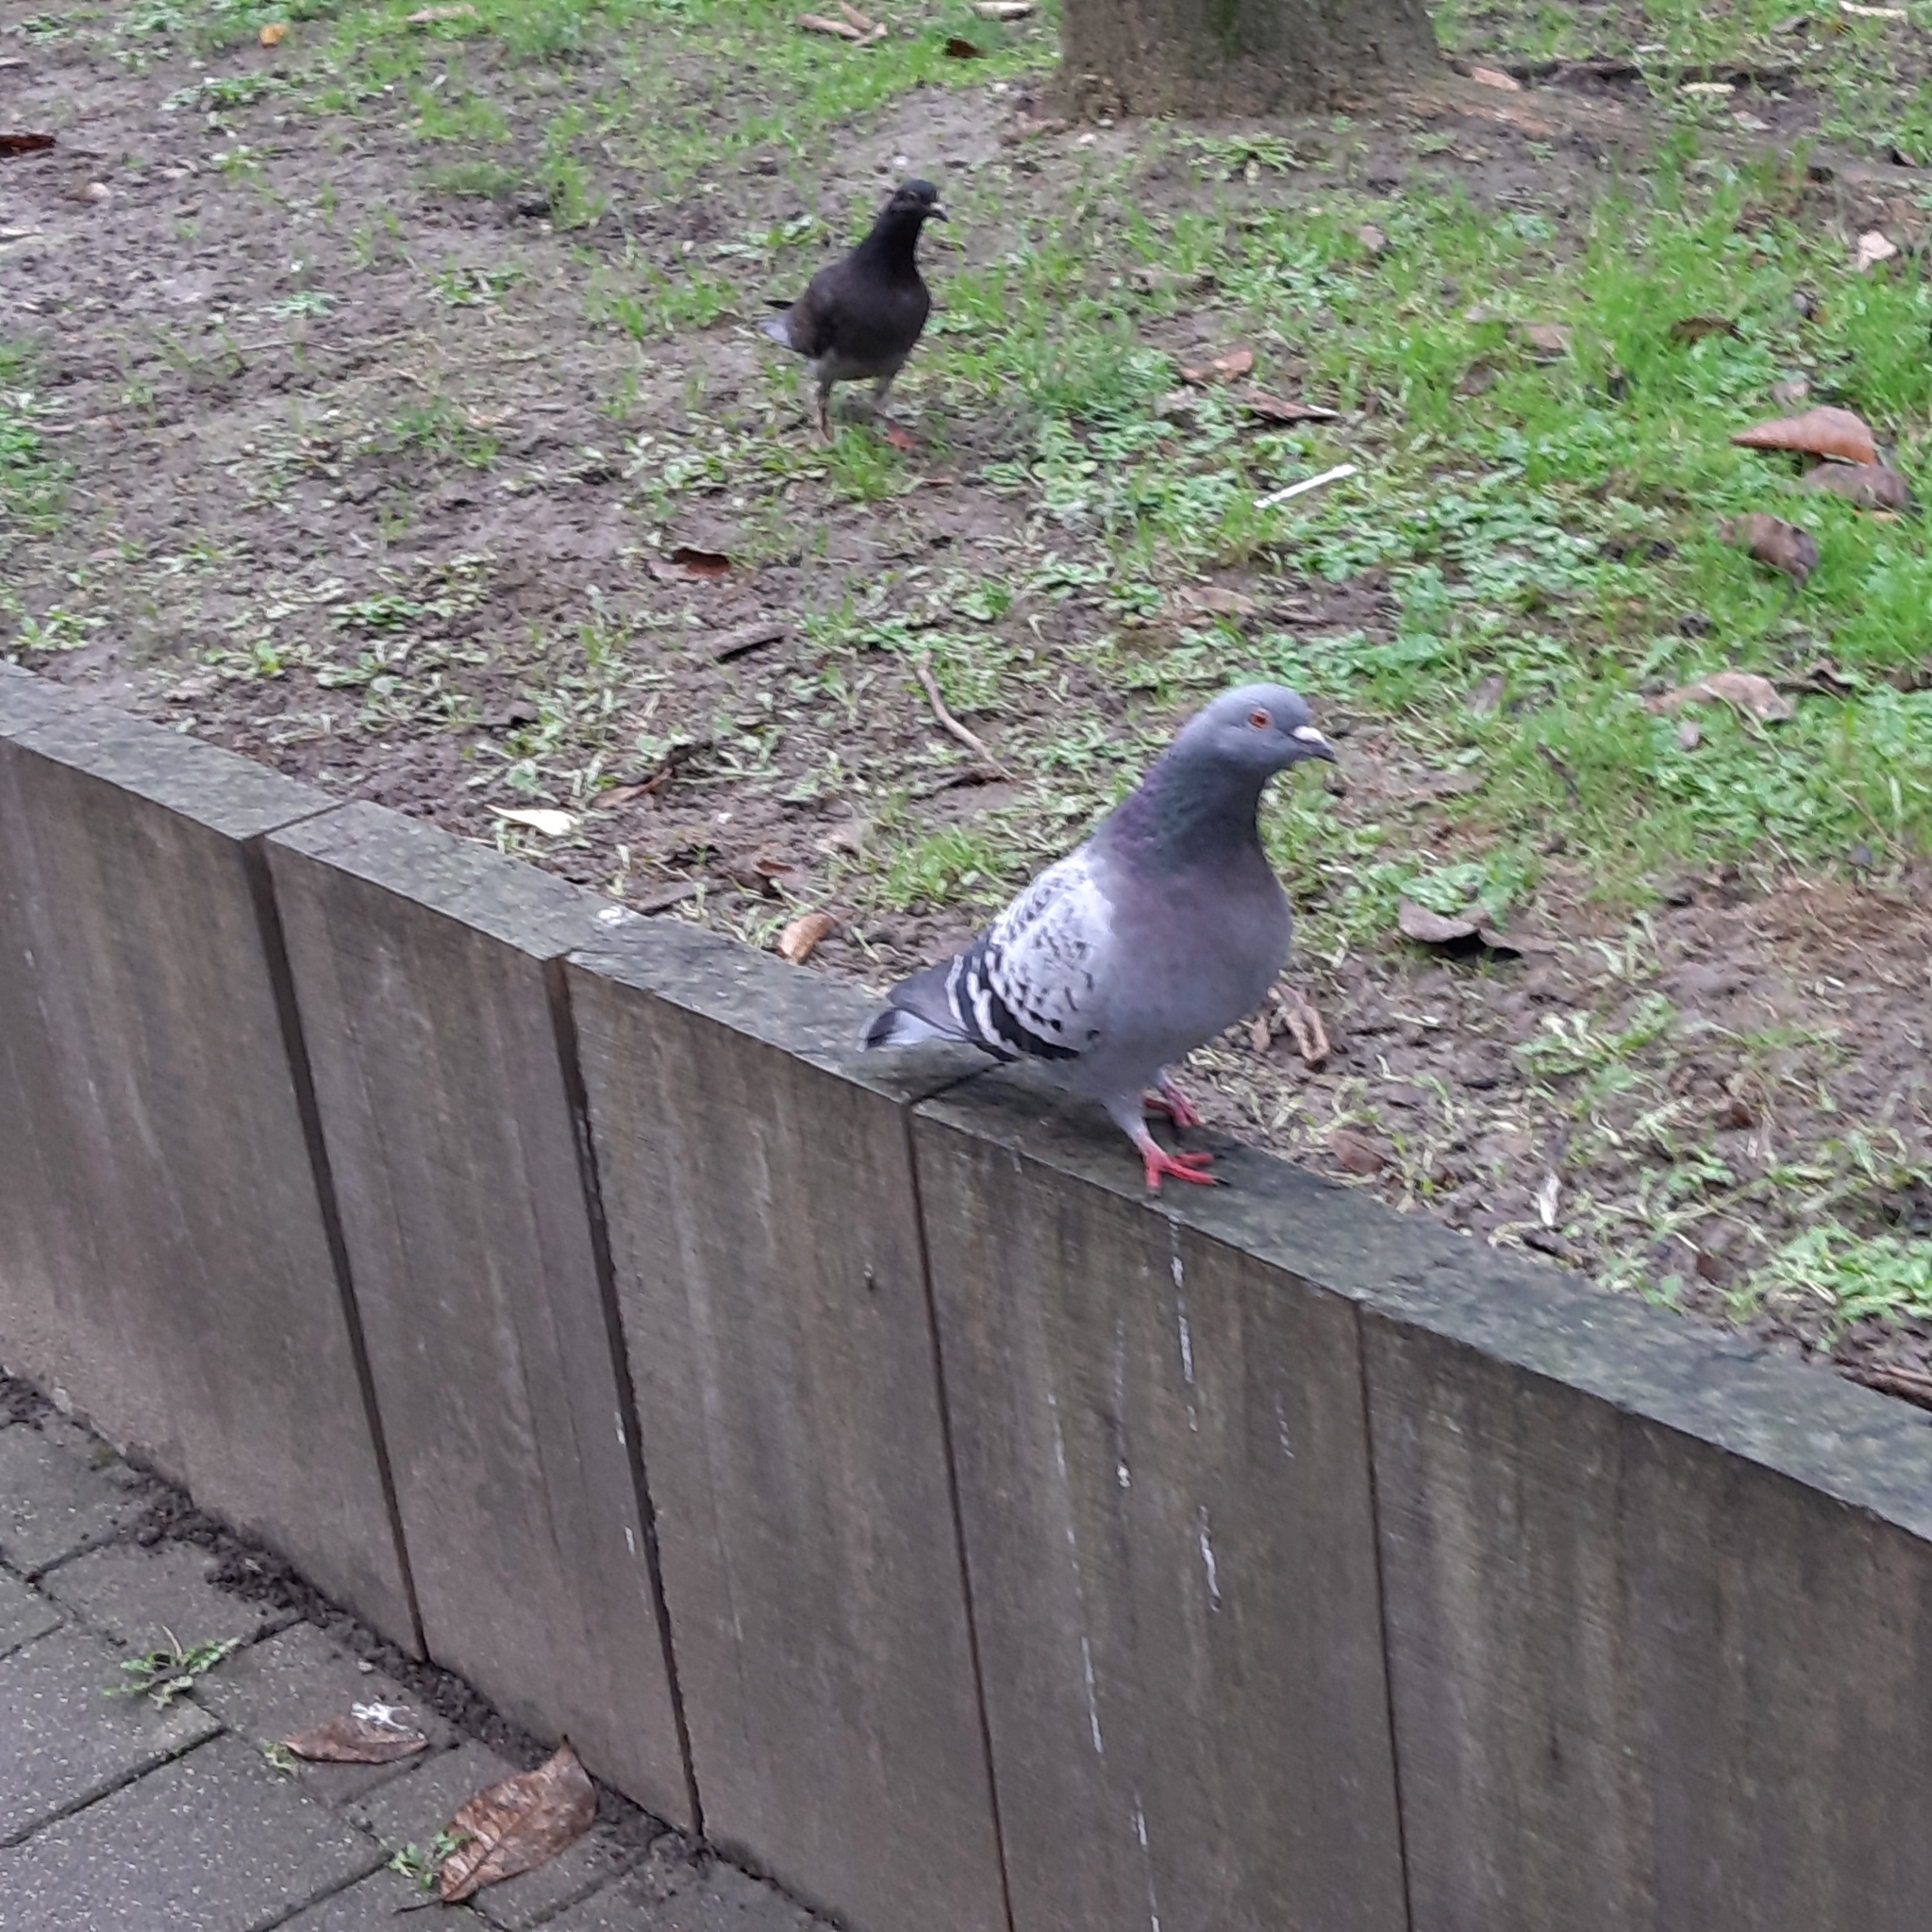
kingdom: Animalia
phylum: Chordata
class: Aves
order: Columbiformes
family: Columbidae
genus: Columba
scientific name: Columba livia
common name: Rock pigeon
